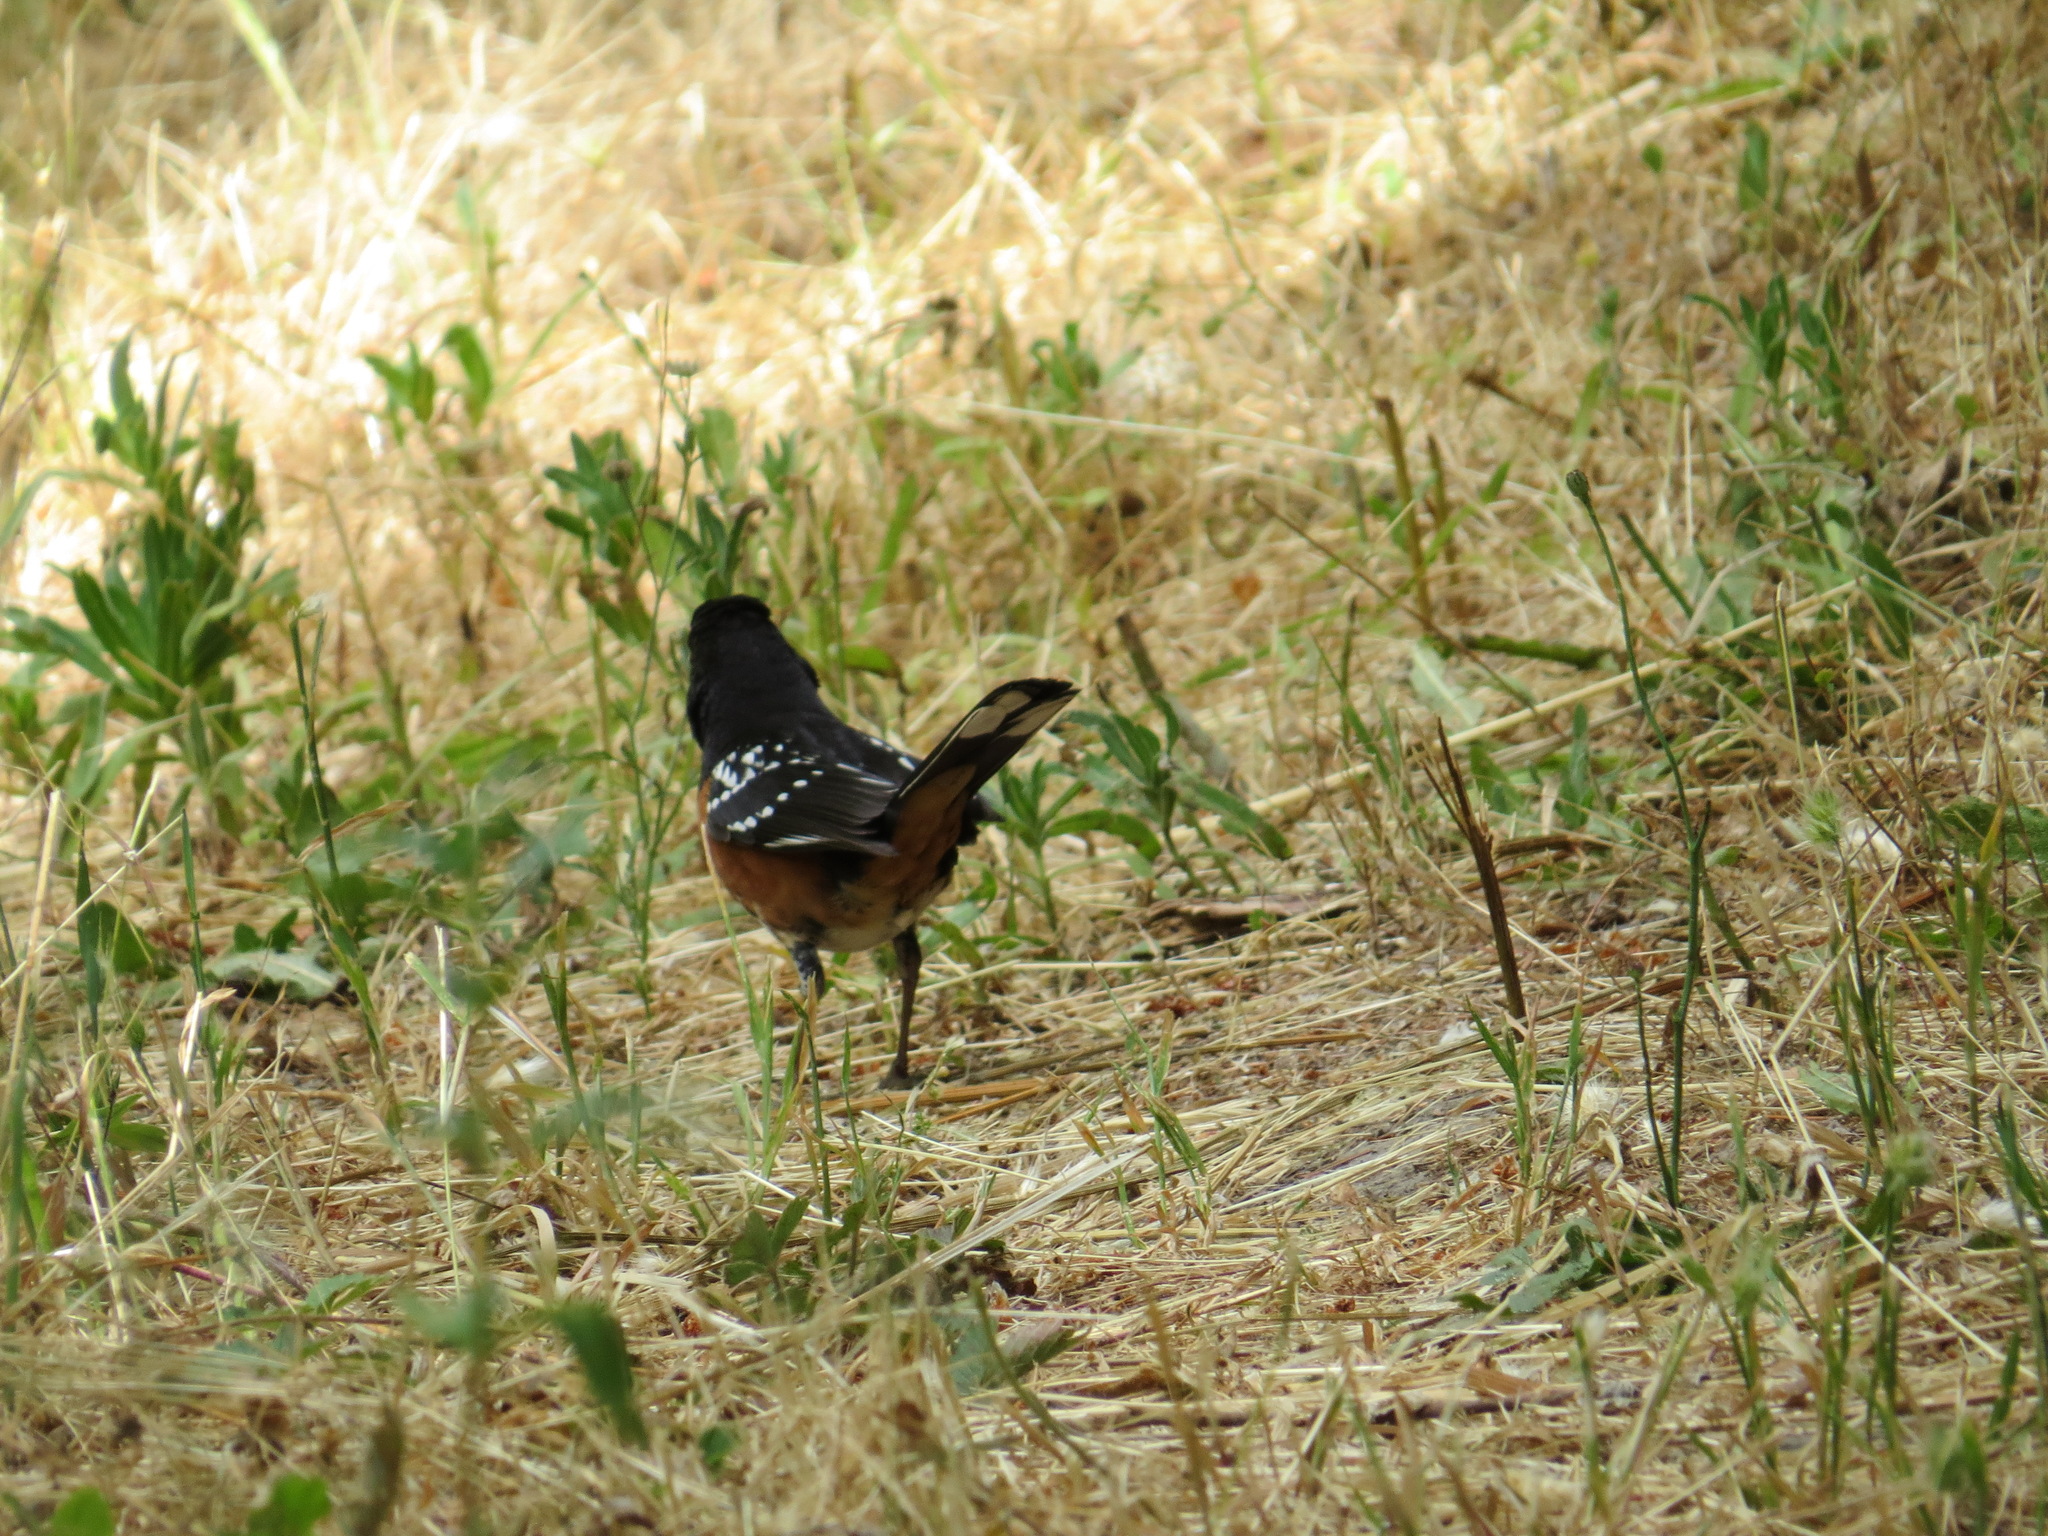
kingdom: Animalia
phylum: Chordata
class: Aves
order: Passeriformes
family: Passerellidae
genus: Pipilo
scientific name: Pipilo maculatus
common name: Spotted towhee
